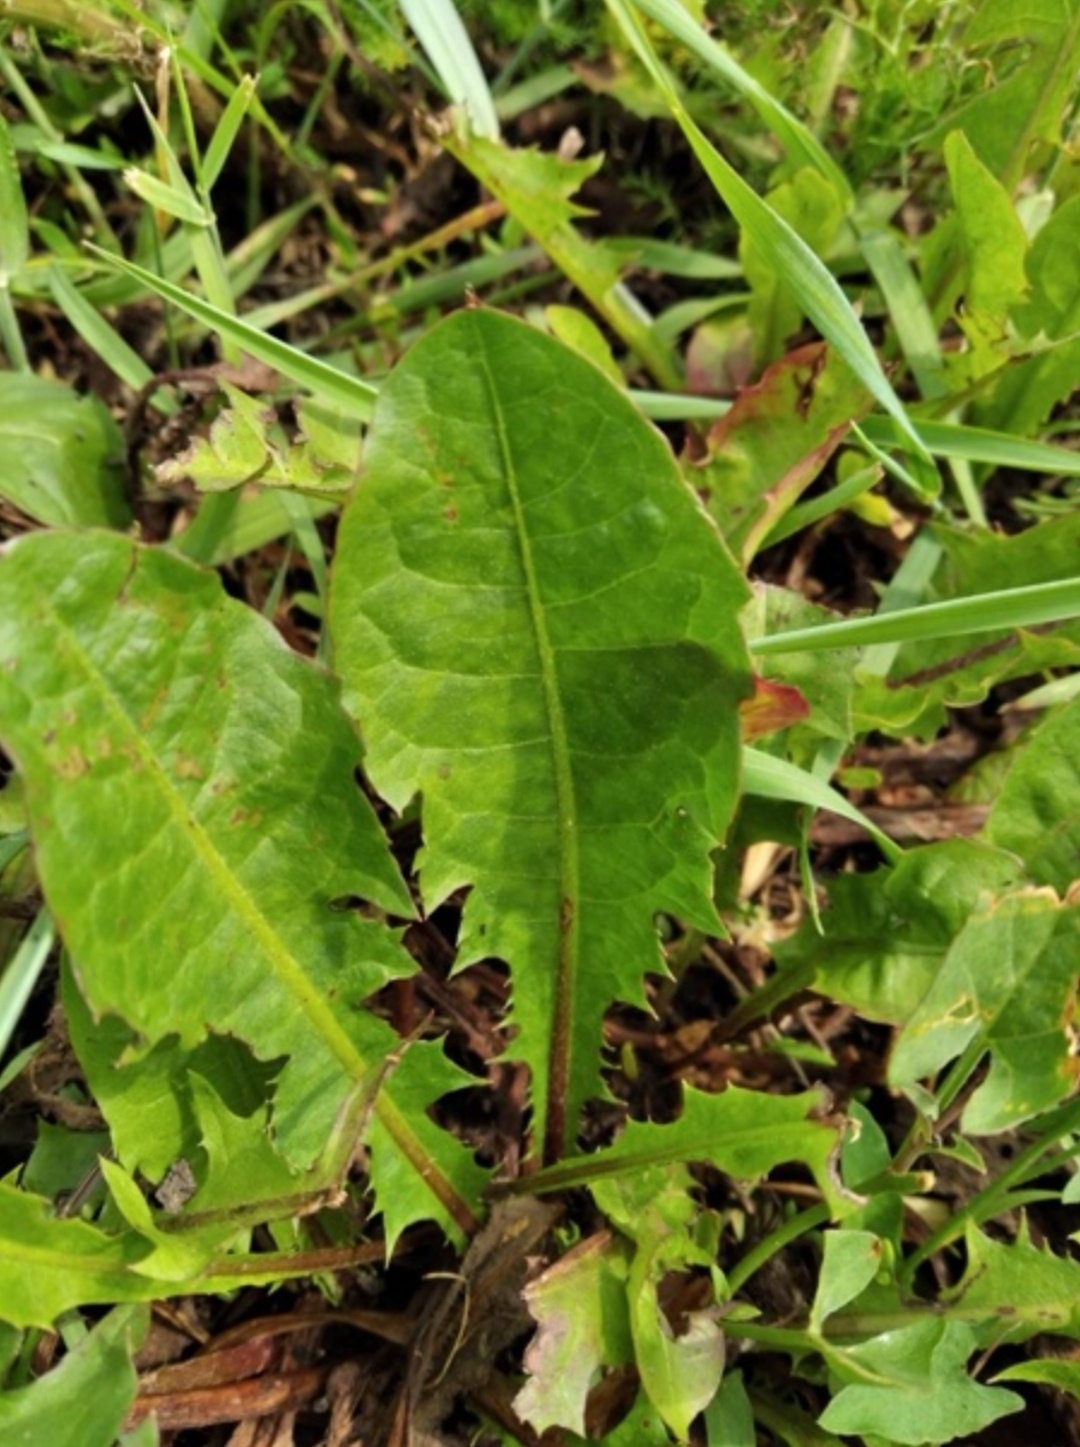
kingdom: Plantae
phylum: Tracheophyta
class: Magnoliopsida
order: Asterales
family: Asteraceae
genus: Taraxacum
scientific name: Taraxacum officinale
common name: Common dandelion
